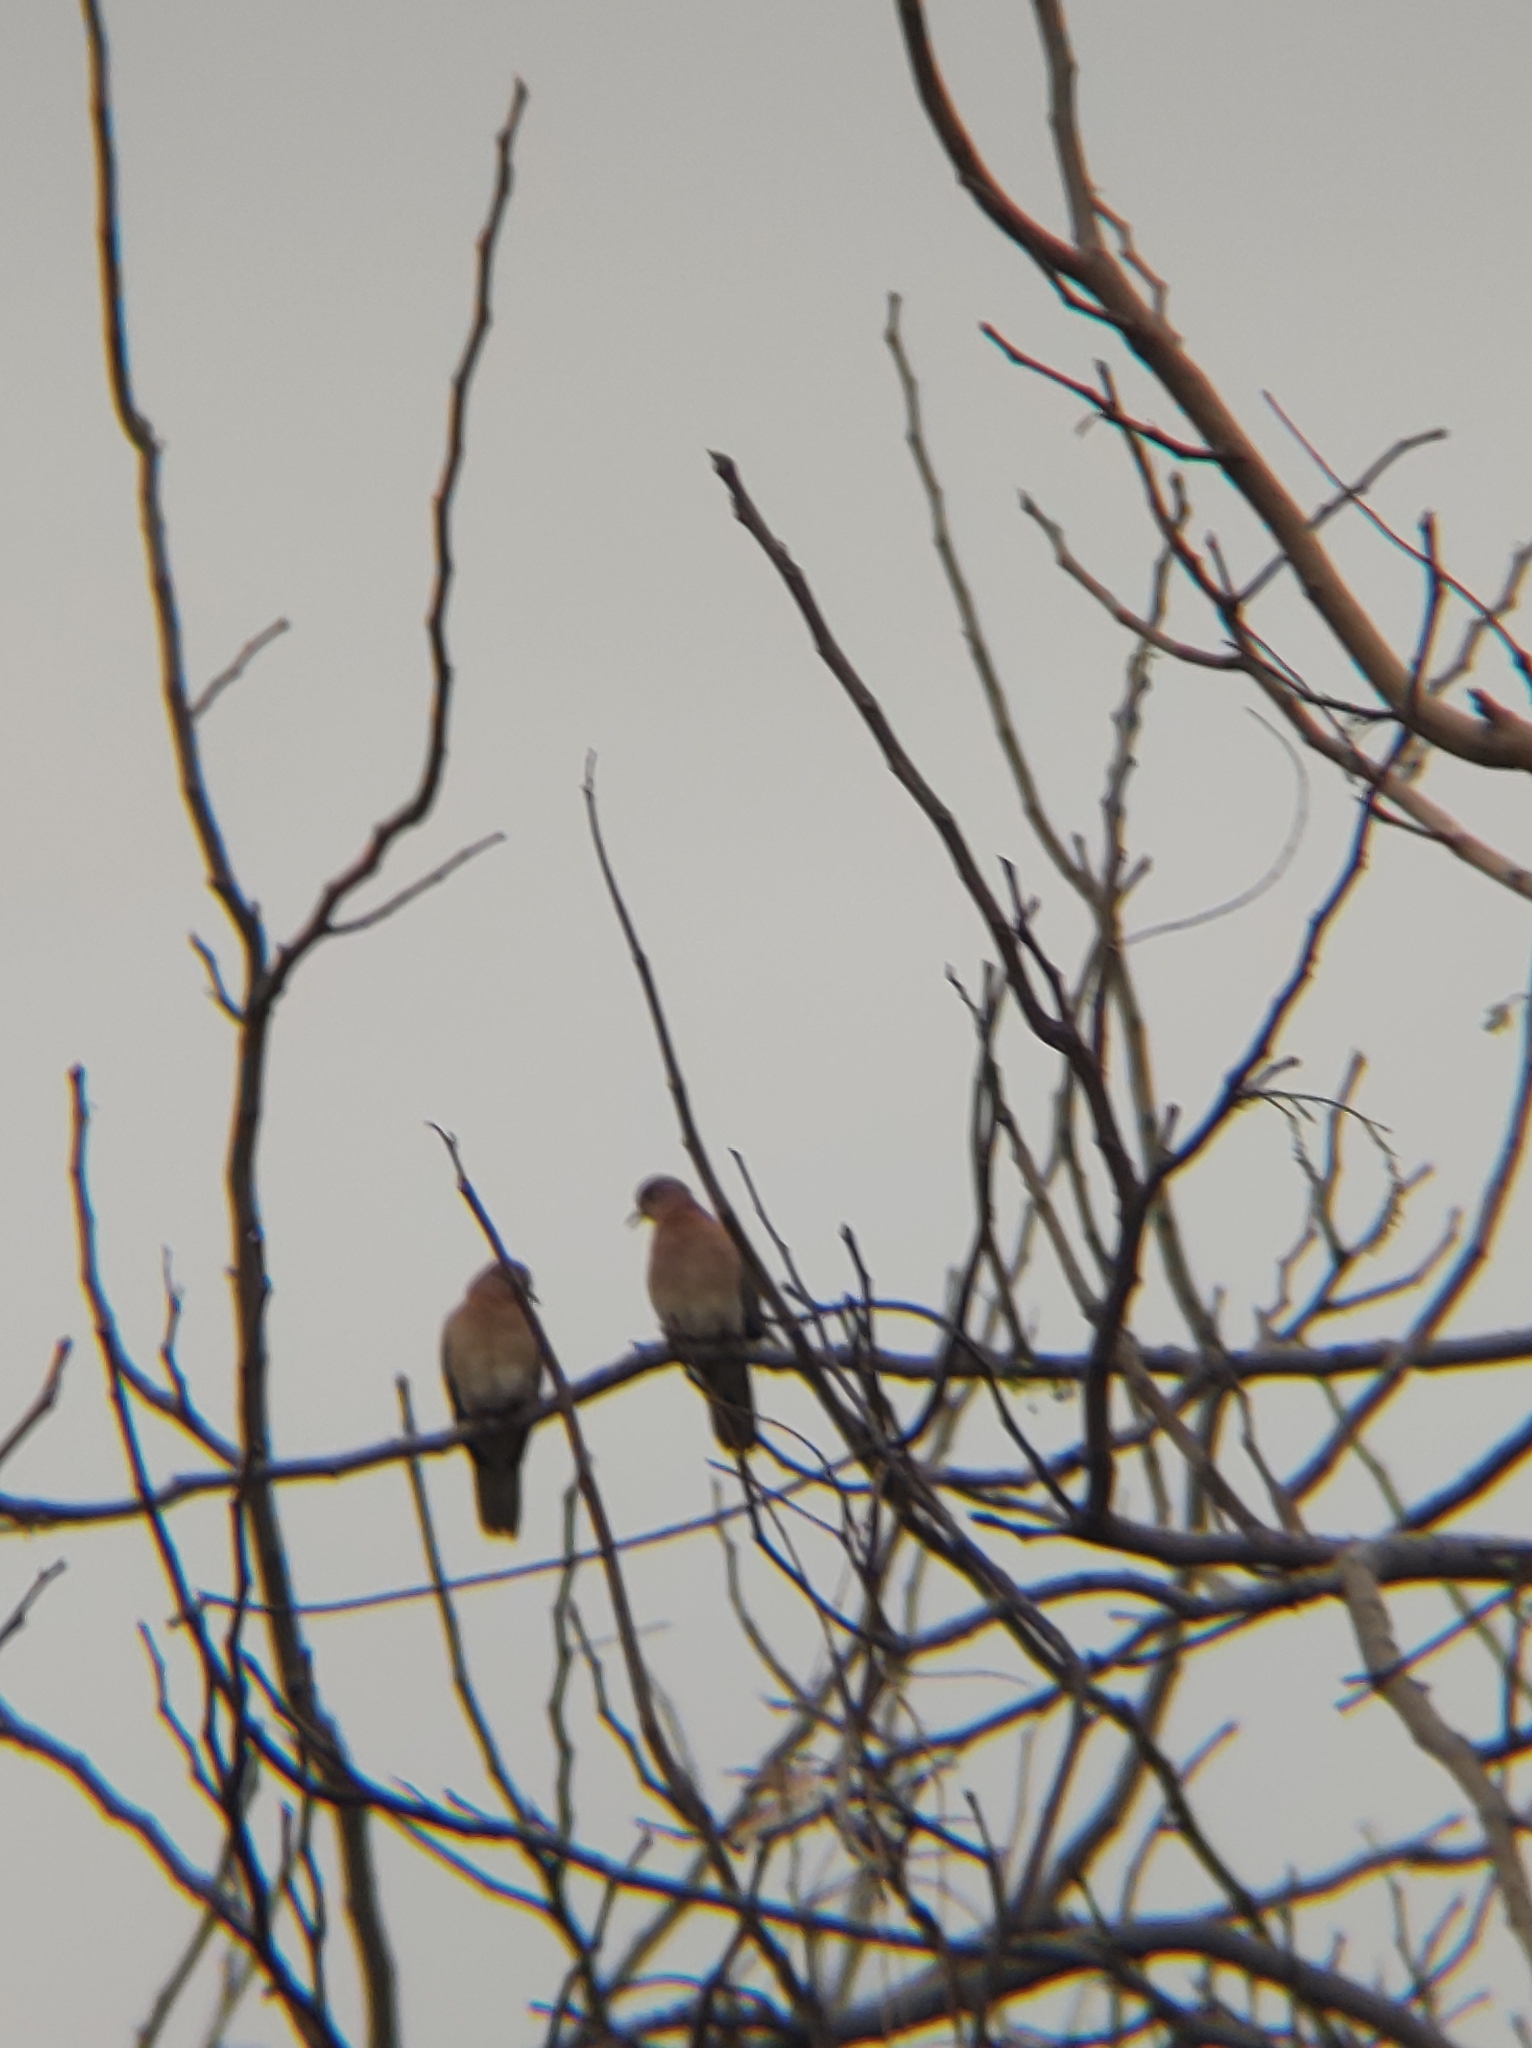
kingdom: Animalia
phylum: Chordata
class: Aves
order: Columbiformes
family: Columbidae
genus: Spilopelia
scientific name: Spilopelia senegalensis
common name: Laughing dove
